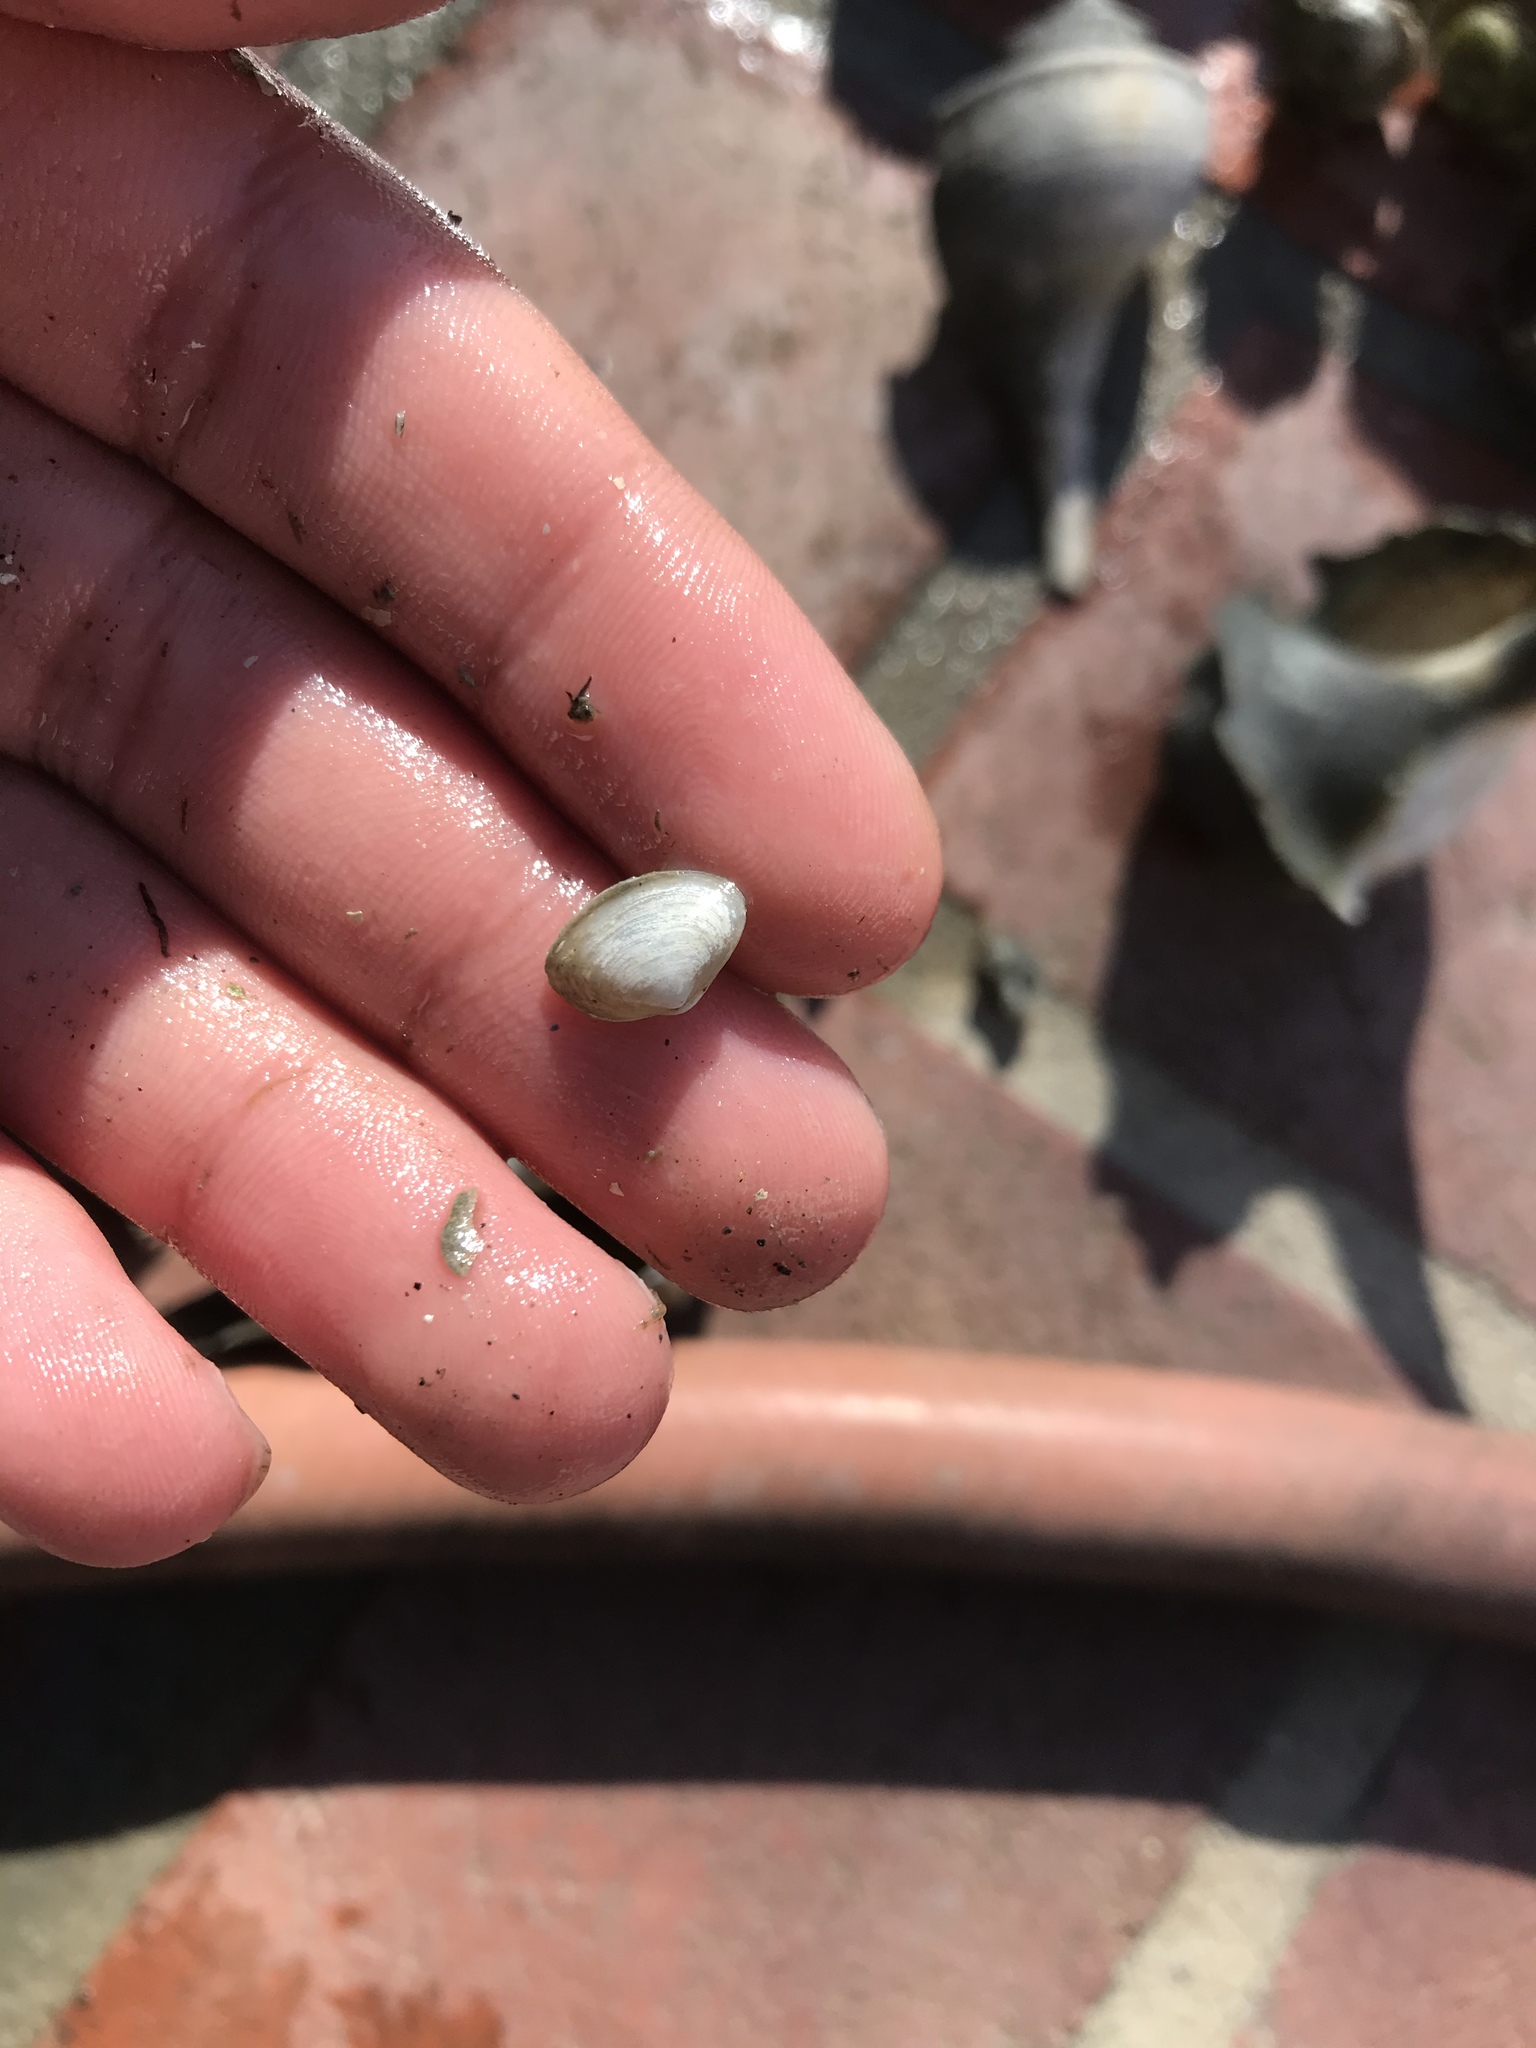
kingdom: Animalia
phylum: Mollusca
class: Bivalvia
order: Myida
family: Corbulidae
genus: Potamocorbula
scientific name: Potamocorbula amurensis
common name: Brackish-water corbula
